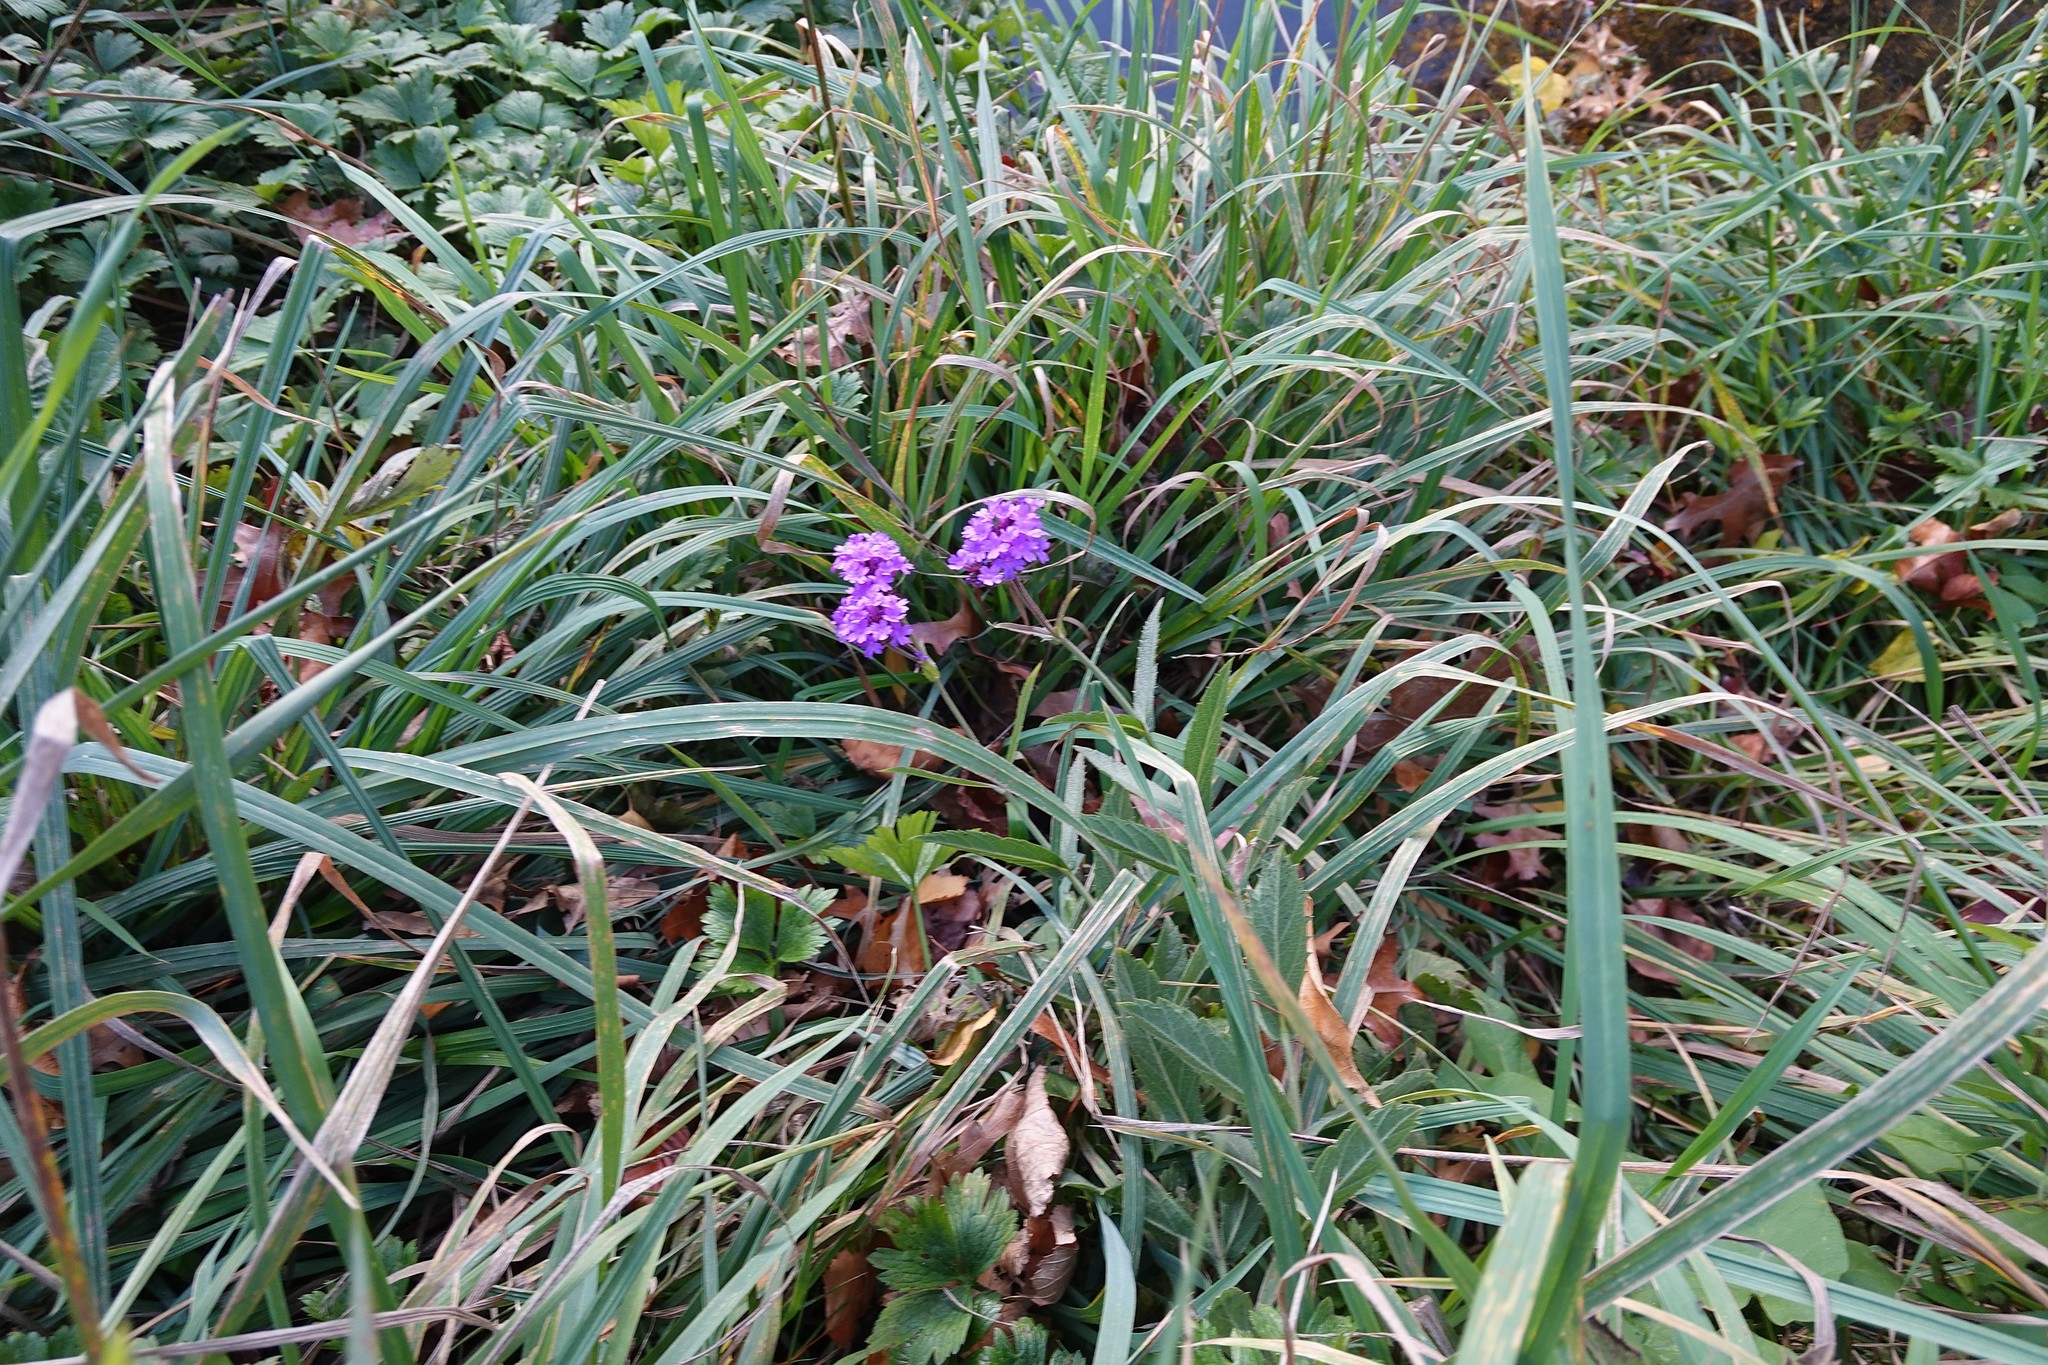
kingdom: Plantae
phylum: Tracheophyta
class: Magnoliopsida
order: Lamiales
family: Verbenaceae
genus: Verbena
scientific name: Verbena rigida
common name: Slender vervain
